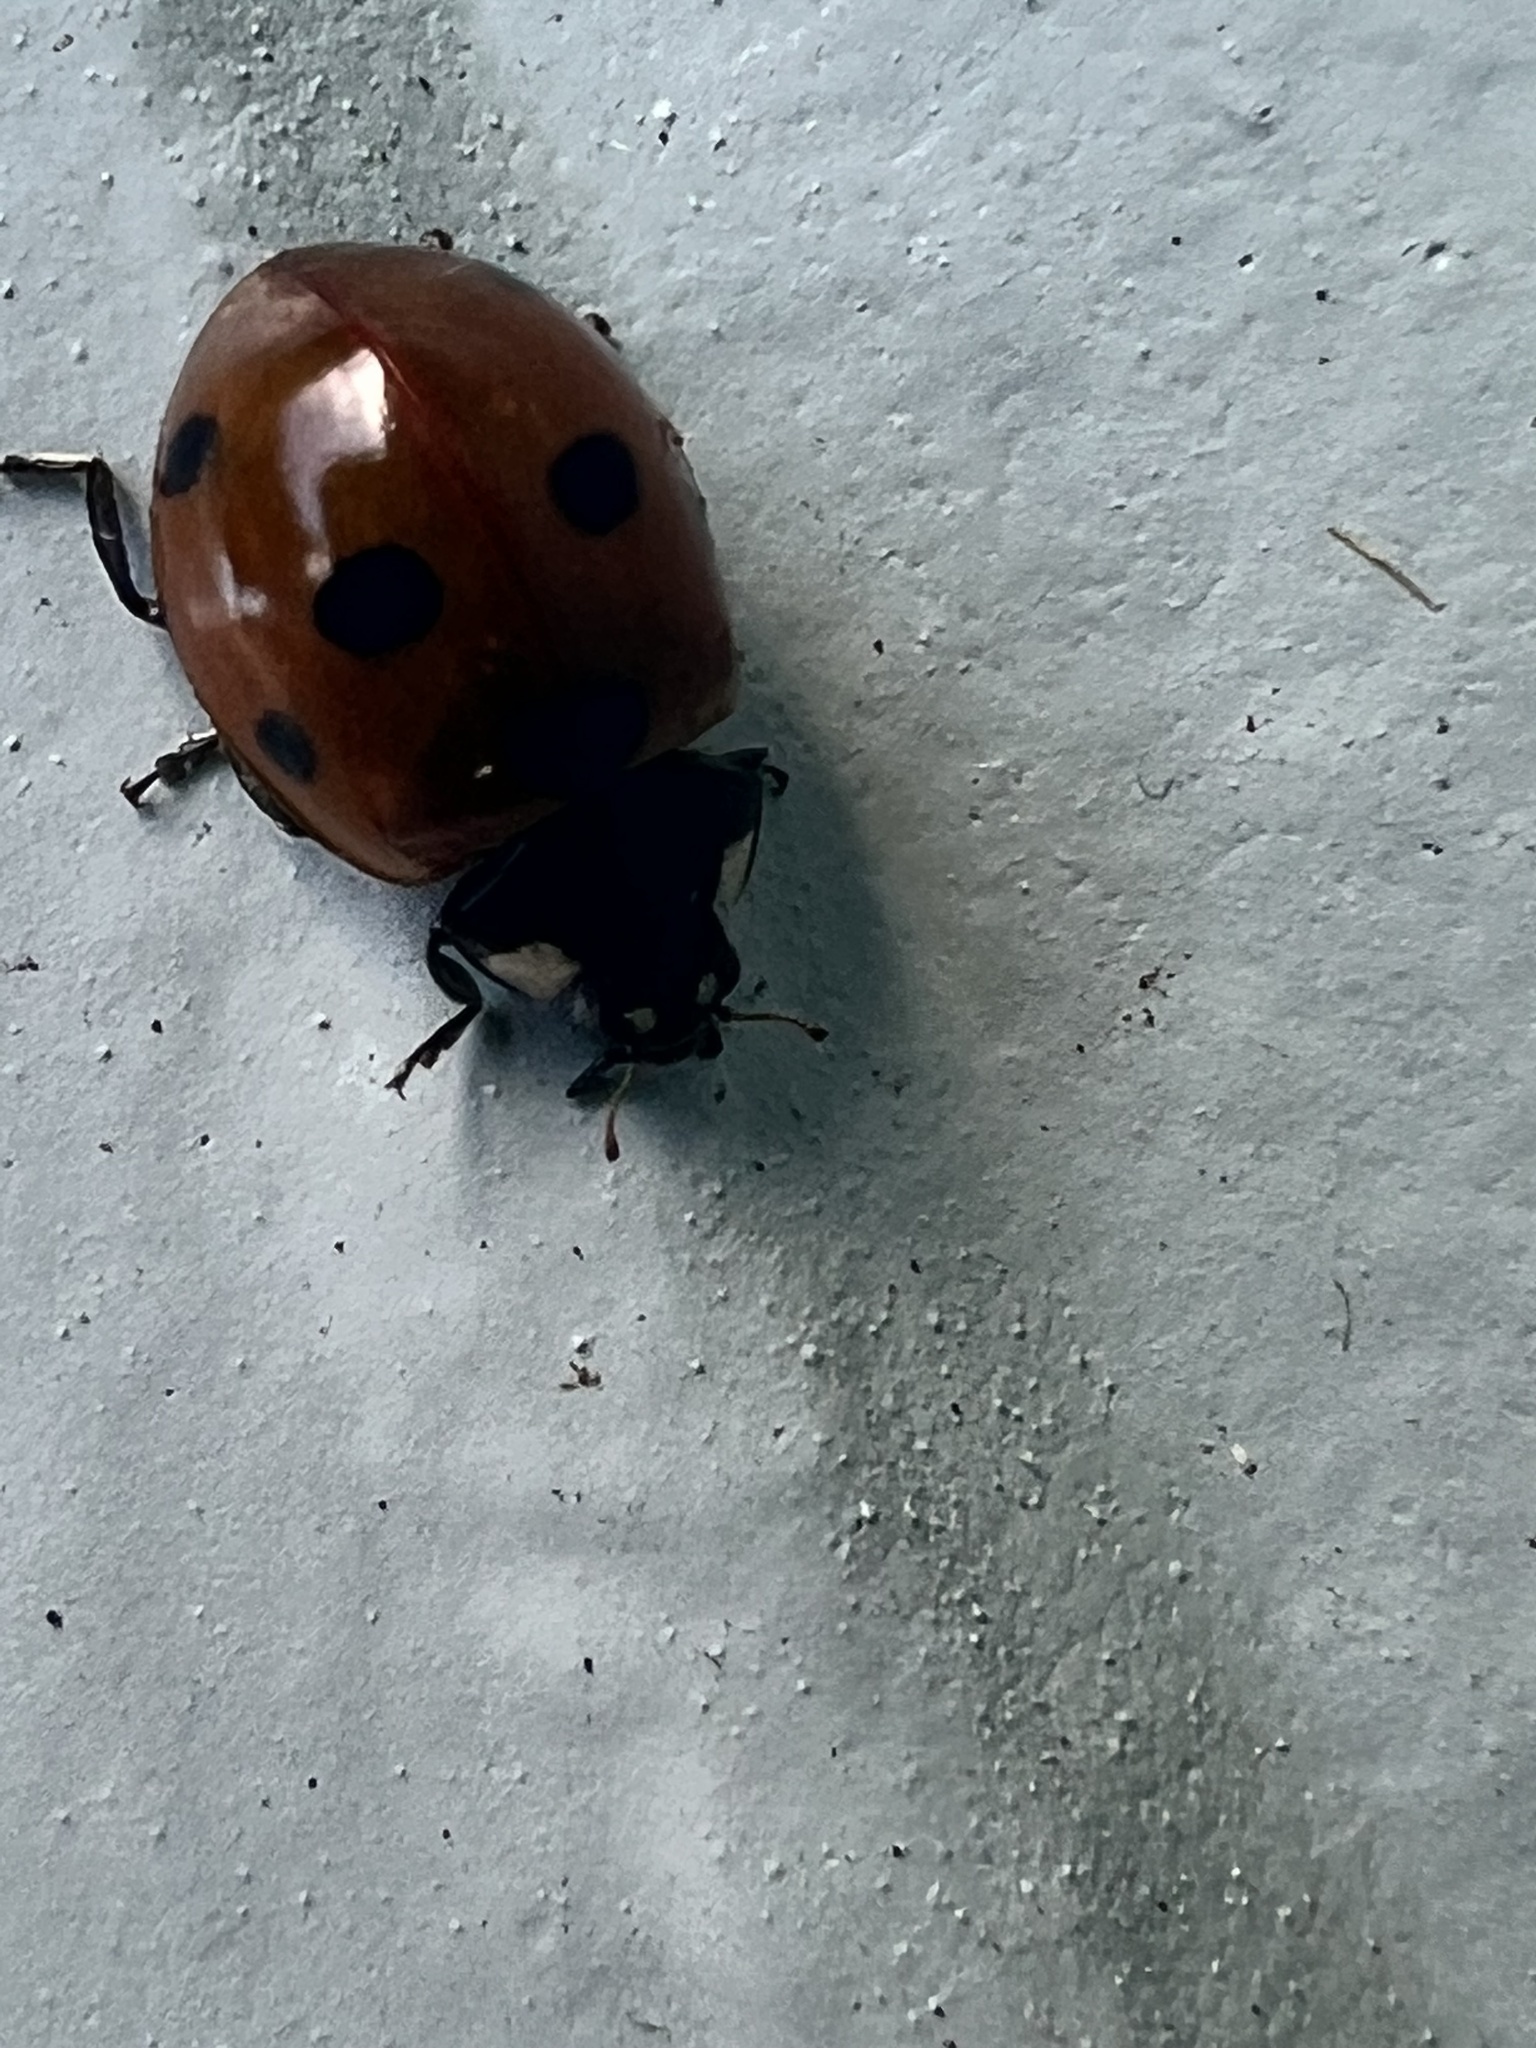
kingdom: Animalia
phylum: Arthropoda
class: Insecta
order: Coleoptera
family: Coccinellidae
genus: Coccinella
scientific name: Coccinella septempunctata
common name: Sevenspotted lady beetle
